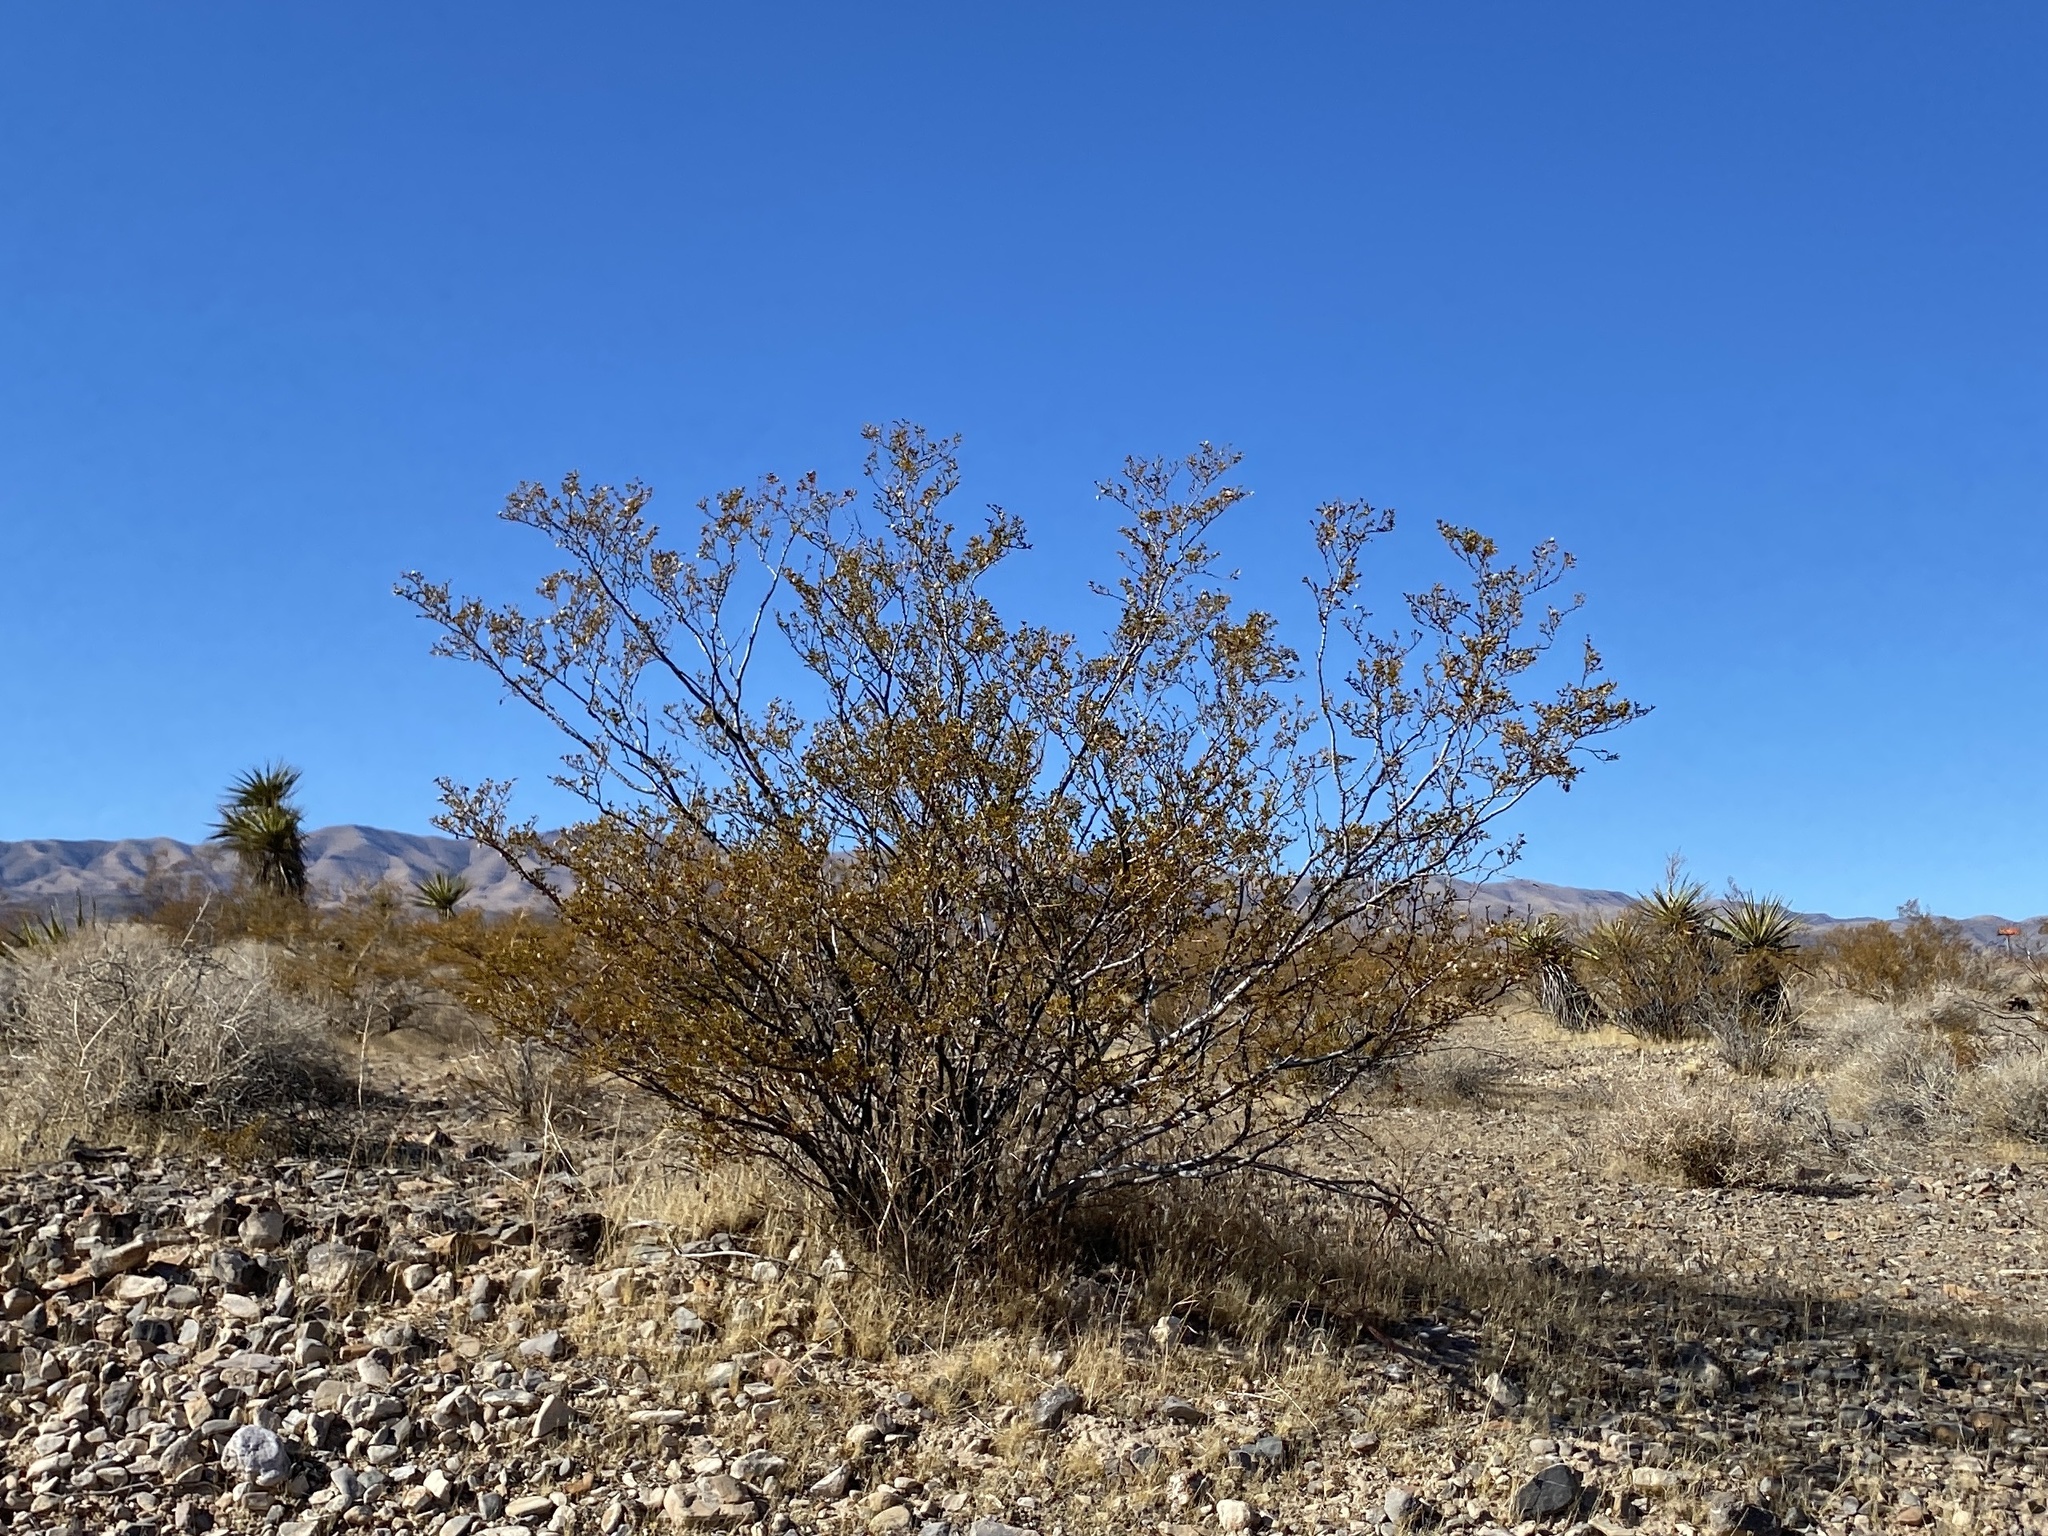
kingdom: Plantae
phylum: Tracheophyta
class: Magnoliopsida
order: Zygophyllales
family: Zygophyllaceae
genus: Larrea
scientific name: Larrea tridentata
